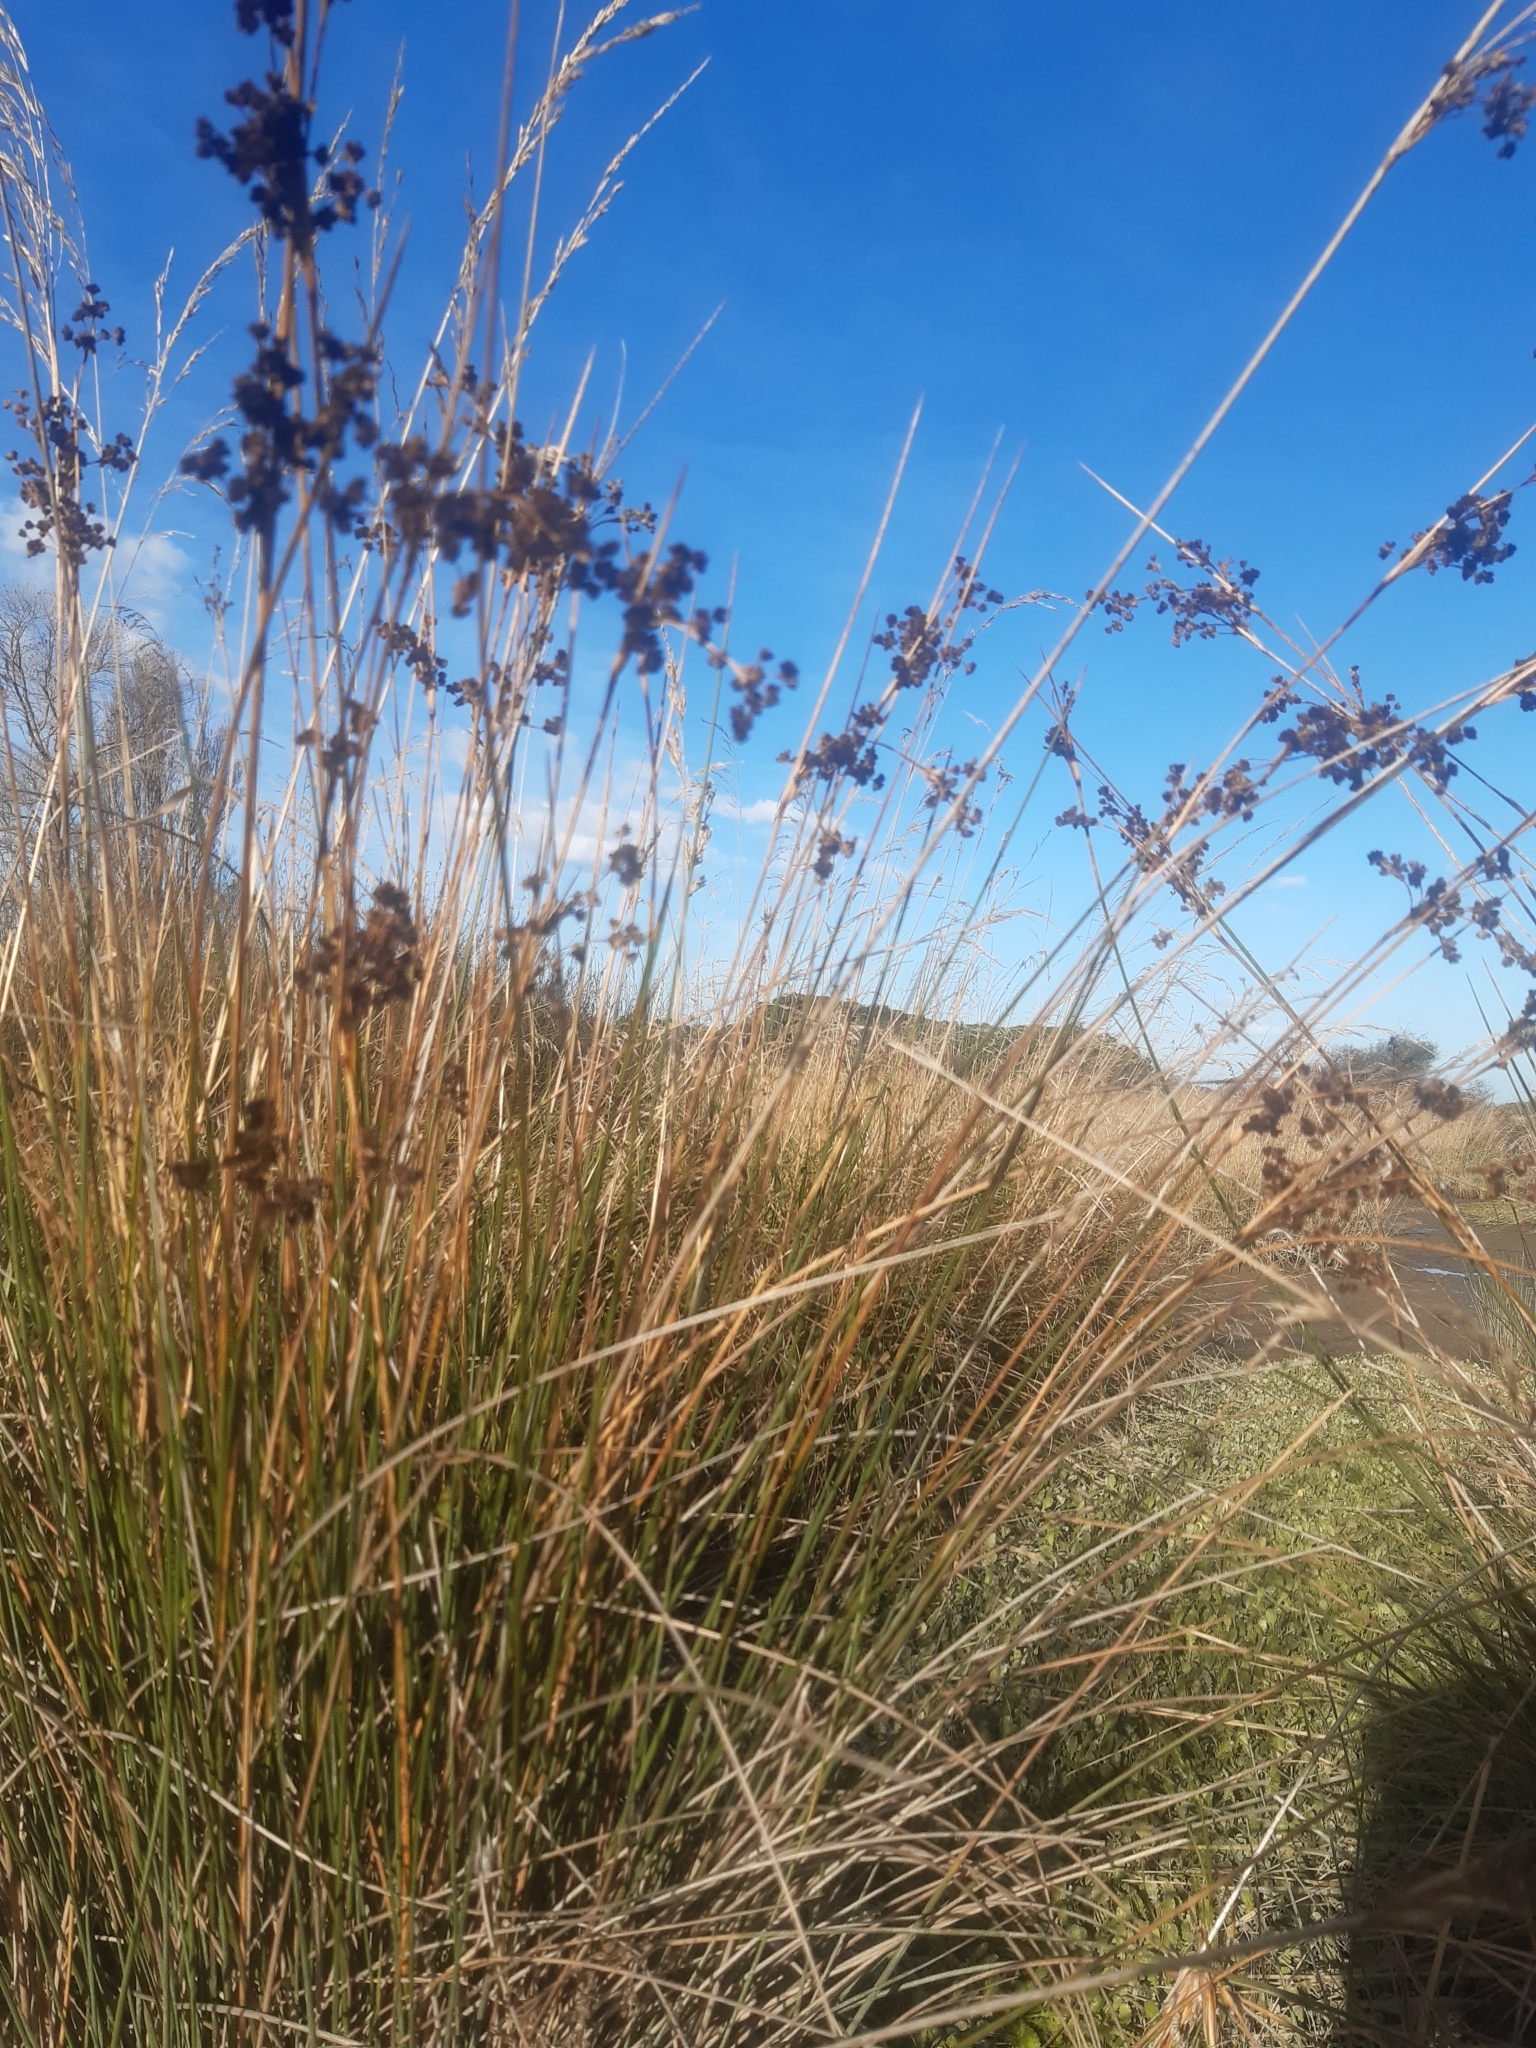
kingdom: Plantae
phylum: Tracheophyta
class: Liliopsida
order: Poales
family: Juncaceae
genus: Juncus
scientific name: Juncus kraussii
